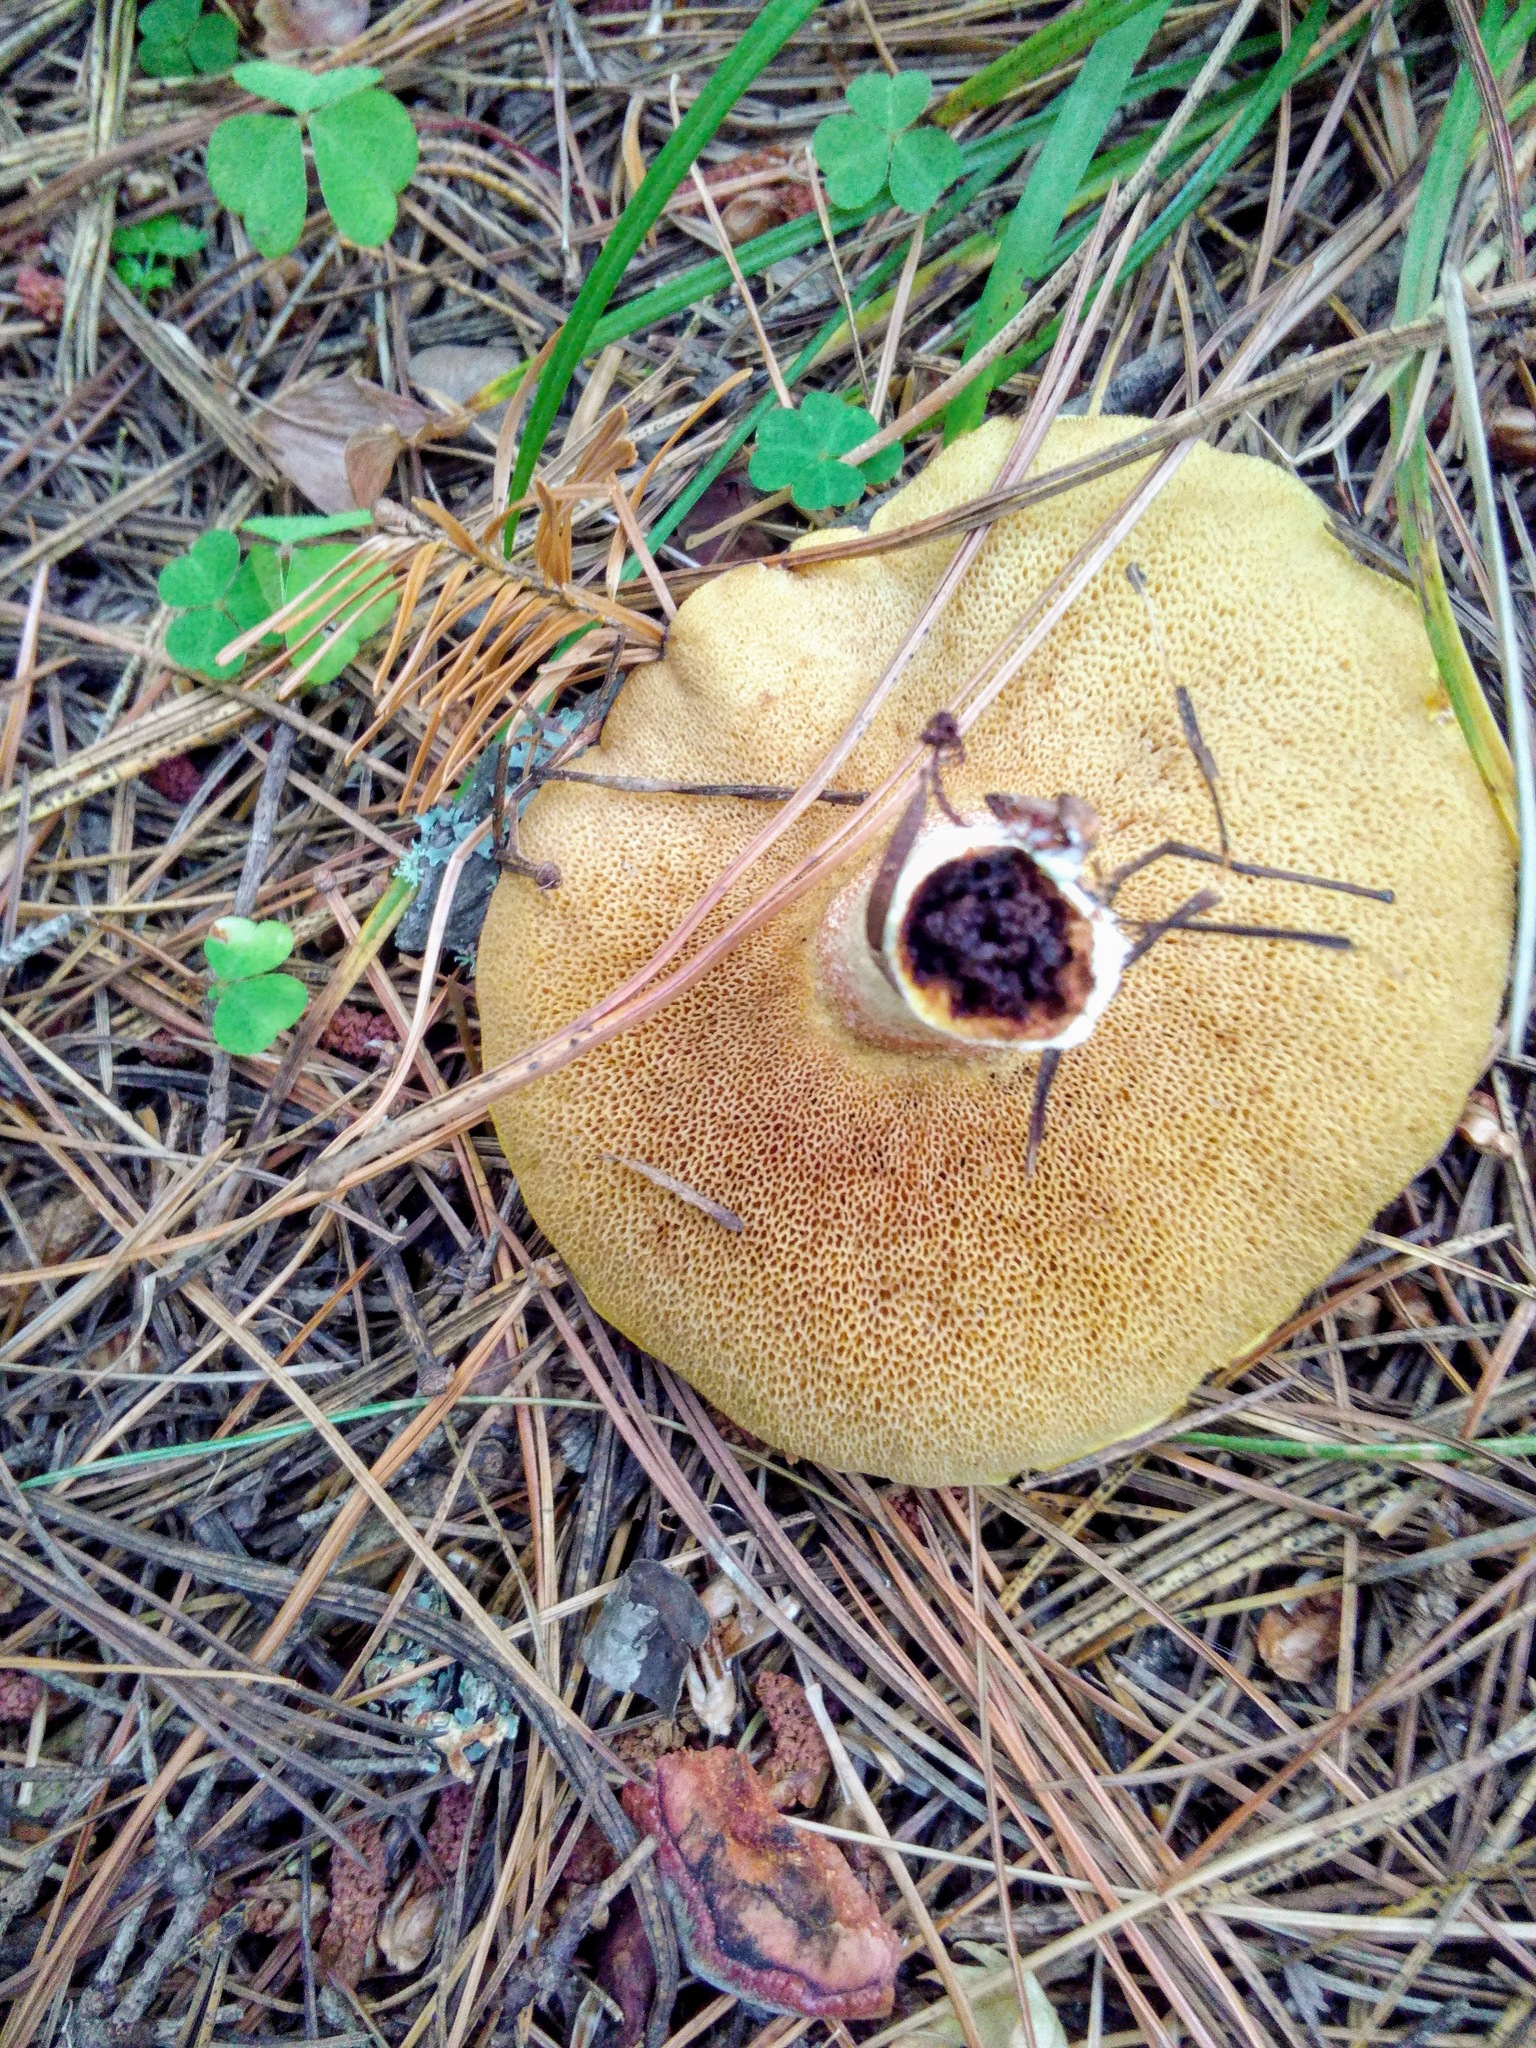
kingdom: Fungi
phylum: Basidiomycota
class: Agaricomycetes
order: Boletales
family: Suillaceae
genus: Suillus
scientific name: Suillus placidus
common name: Slippery white bolete
